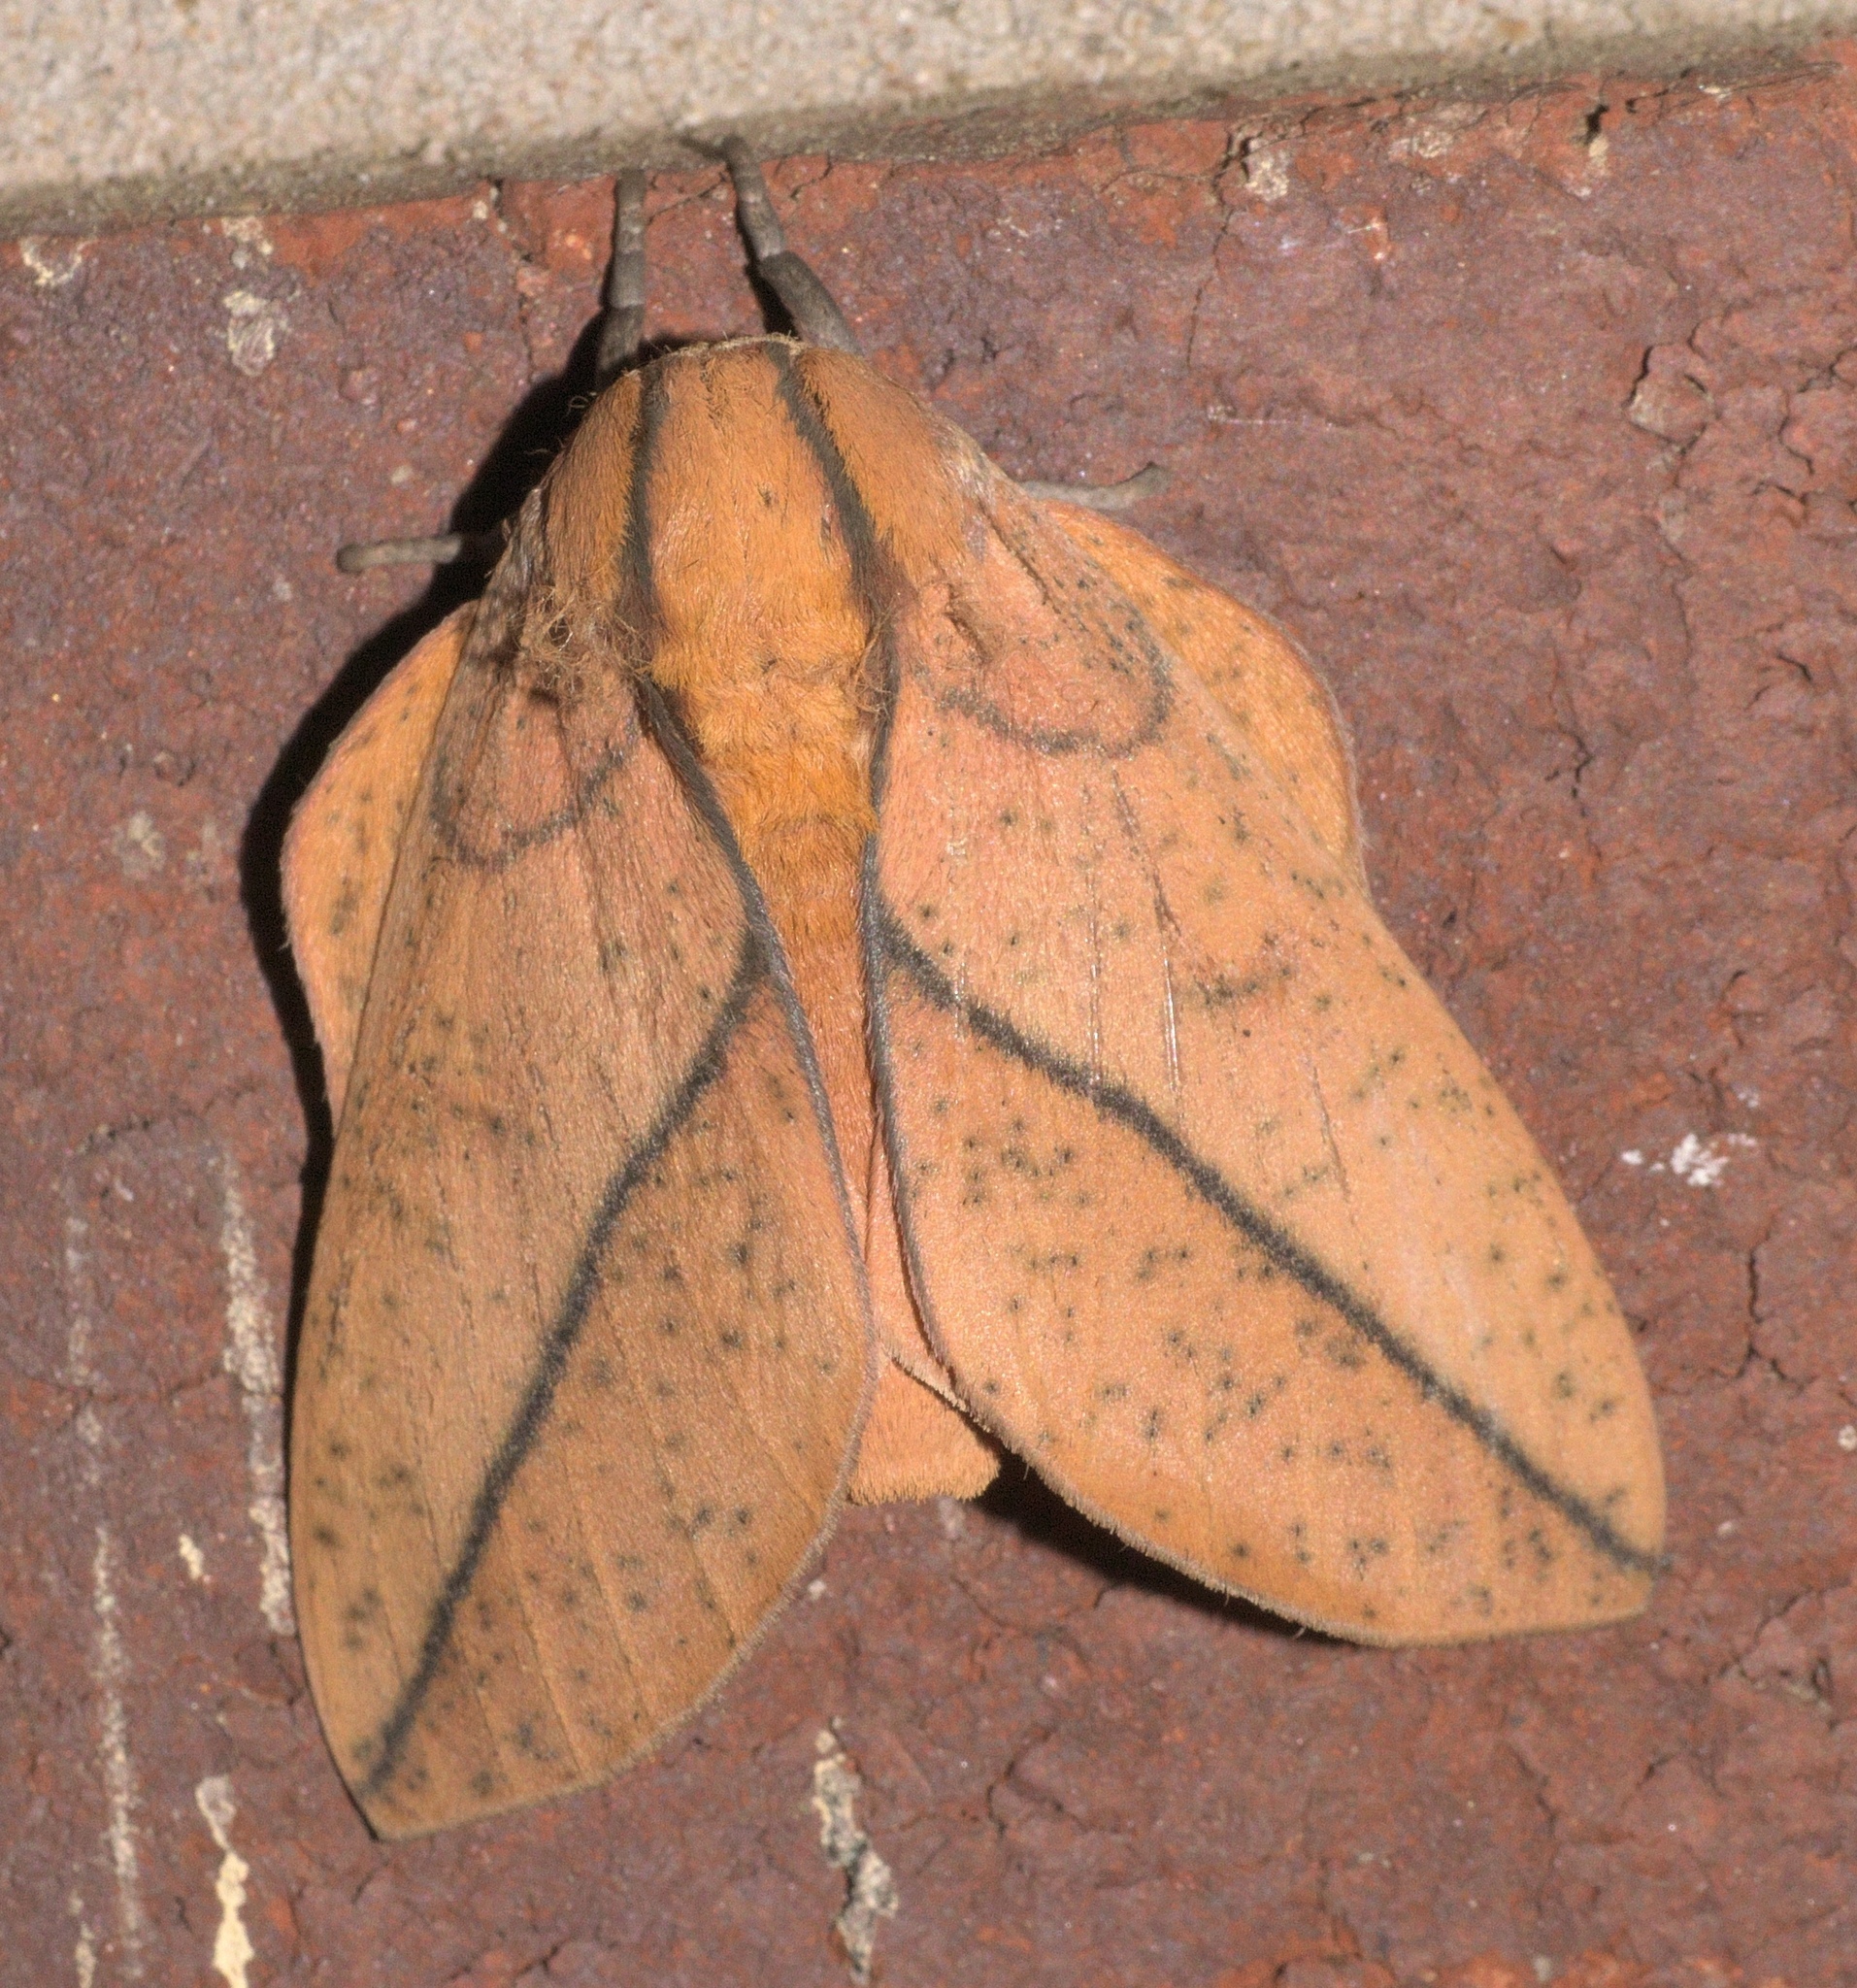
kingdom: Animalia
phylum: Arthropoda
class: Insecta
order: Lepidoptera
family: Saturniidae
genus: Syssphinx
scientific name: Syssphinx bisecta
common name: Bisected honey locust moth
